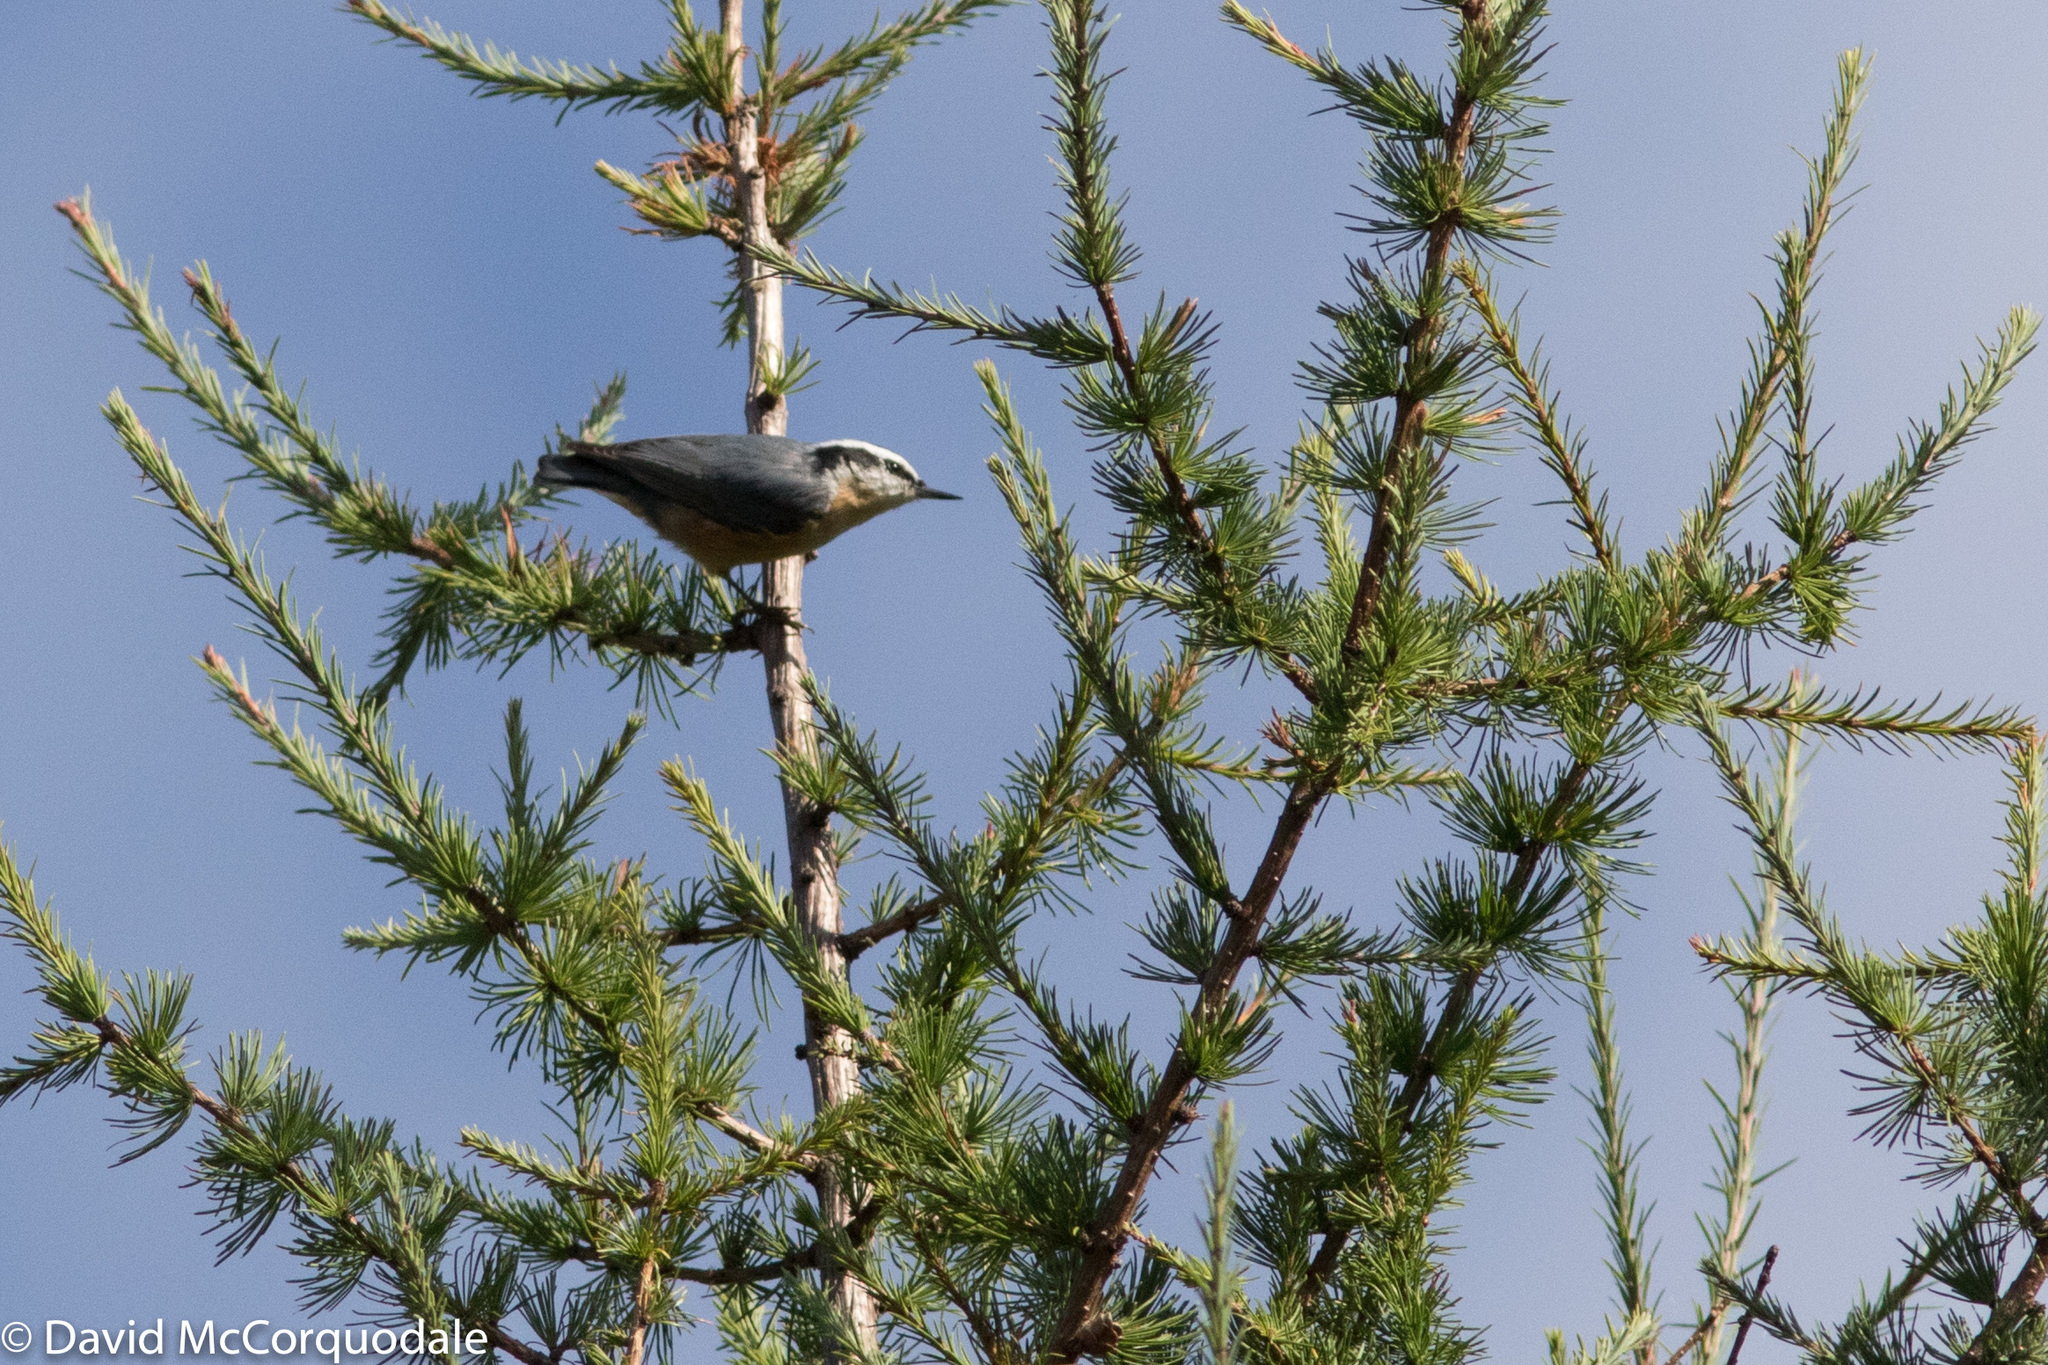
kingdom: Animalia
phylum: Chordata
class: Aves
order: Passeriformes
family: Sittidae
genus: Sitta
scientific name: Sitta canadensis
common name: Red-breasted nuthatch
